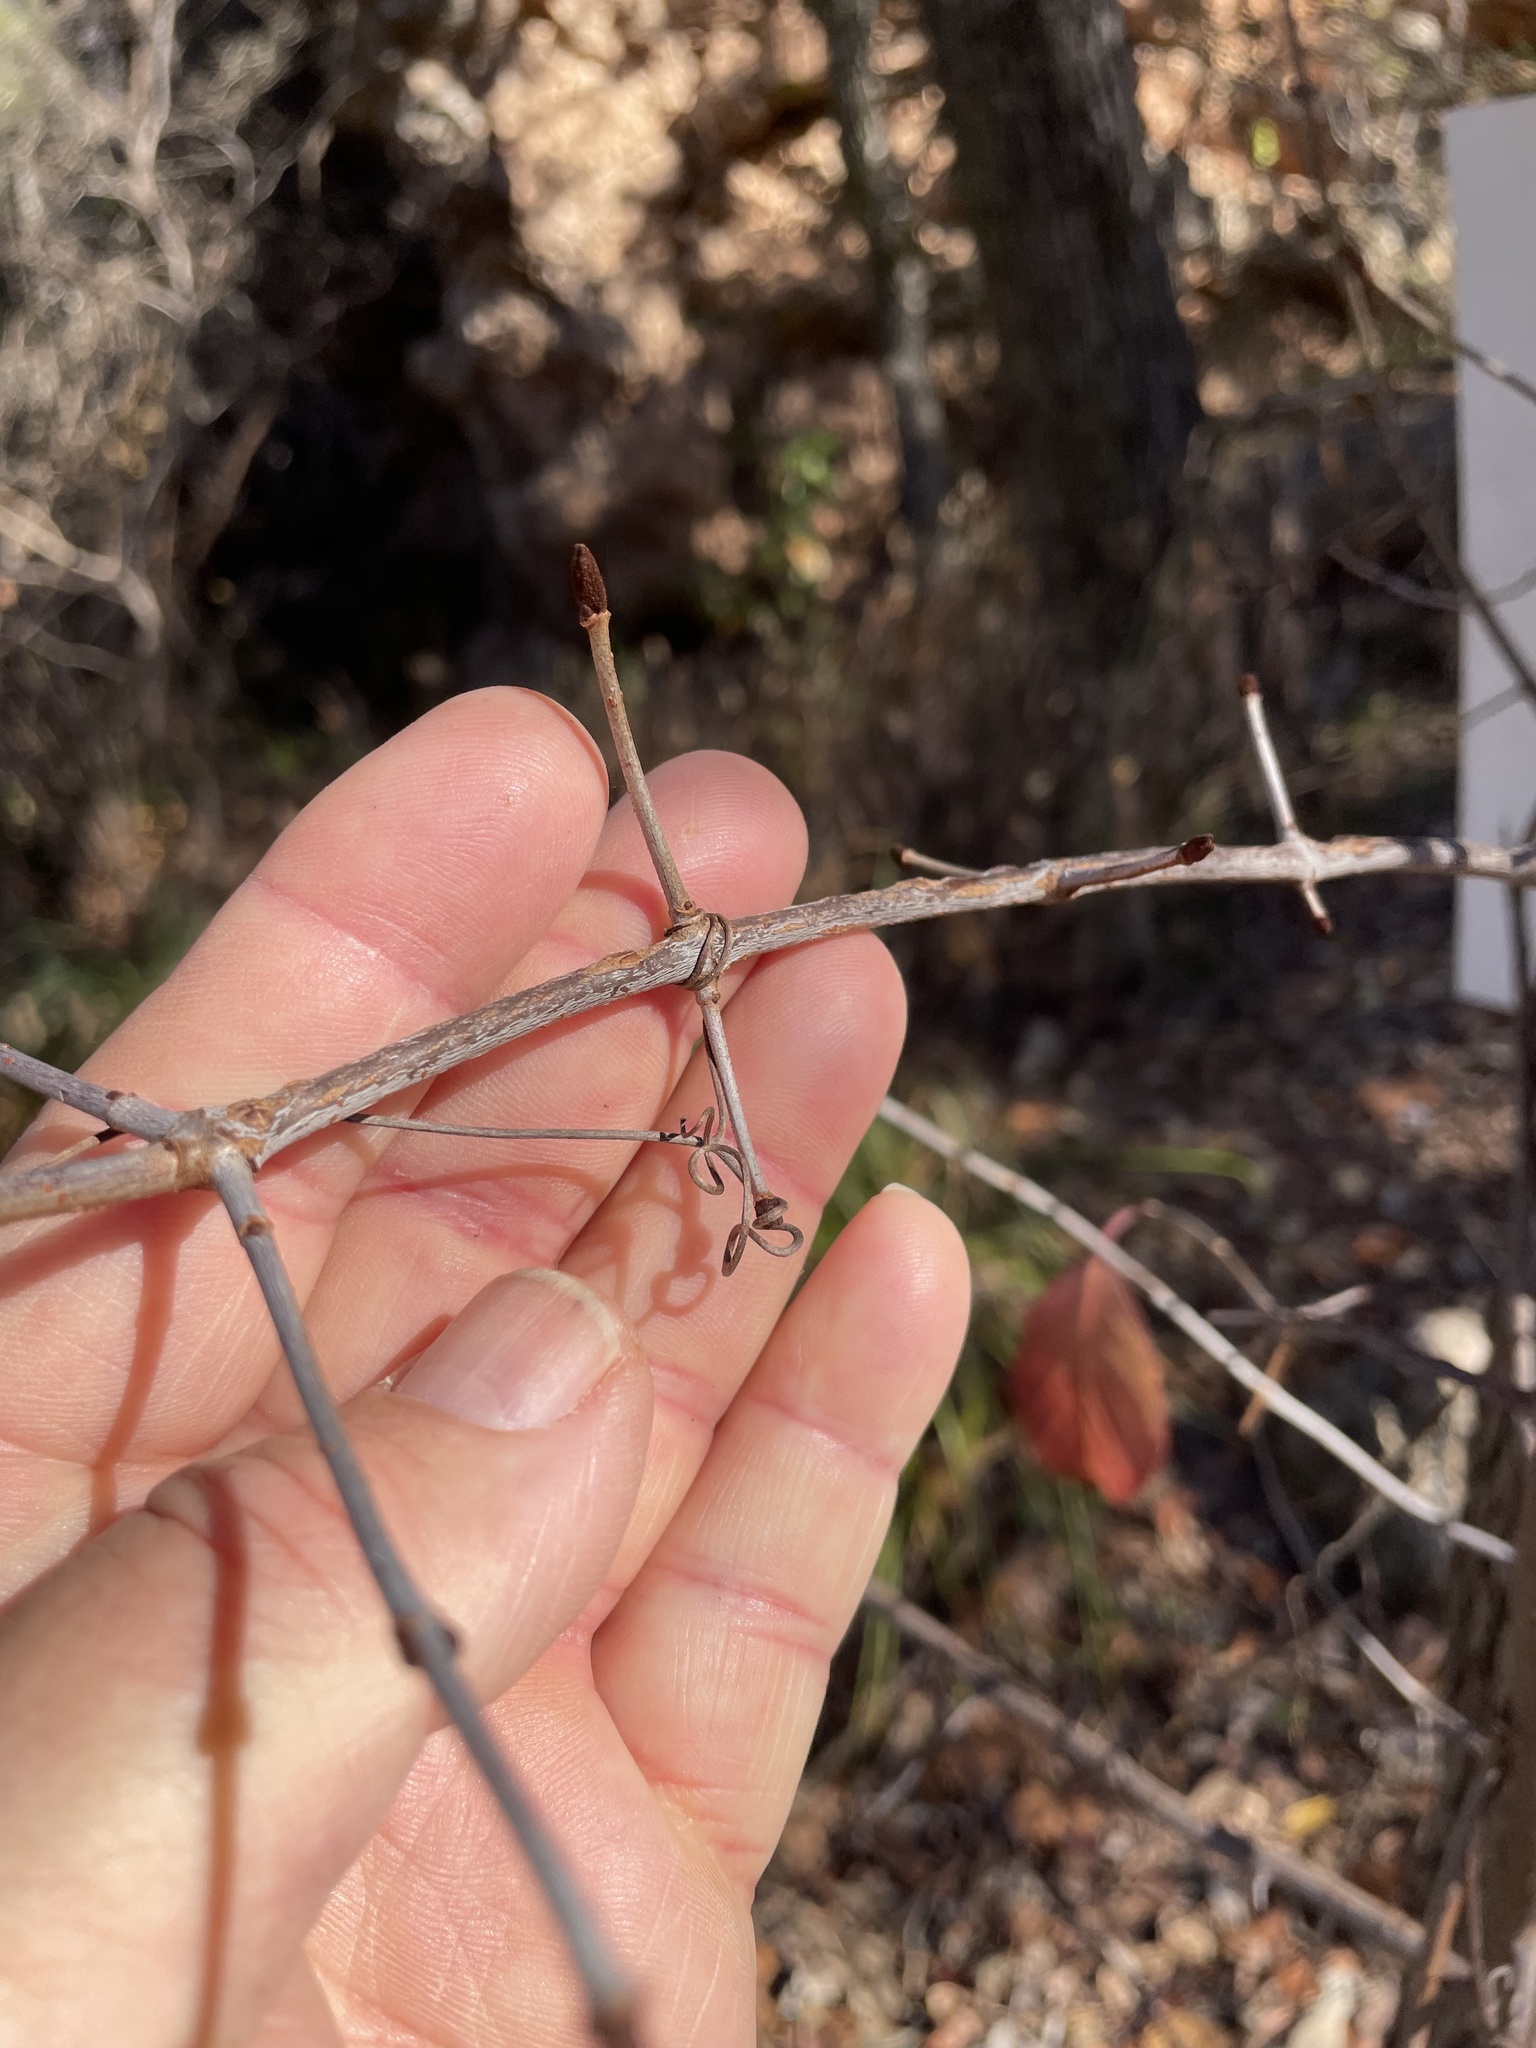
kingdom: Plantae
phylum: Tracheophyta
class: Magnoliopsida
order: Dipsacales
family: Viburnaceae
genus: Viburnum
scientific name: Viburnum rufidulum
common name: Blue haw
